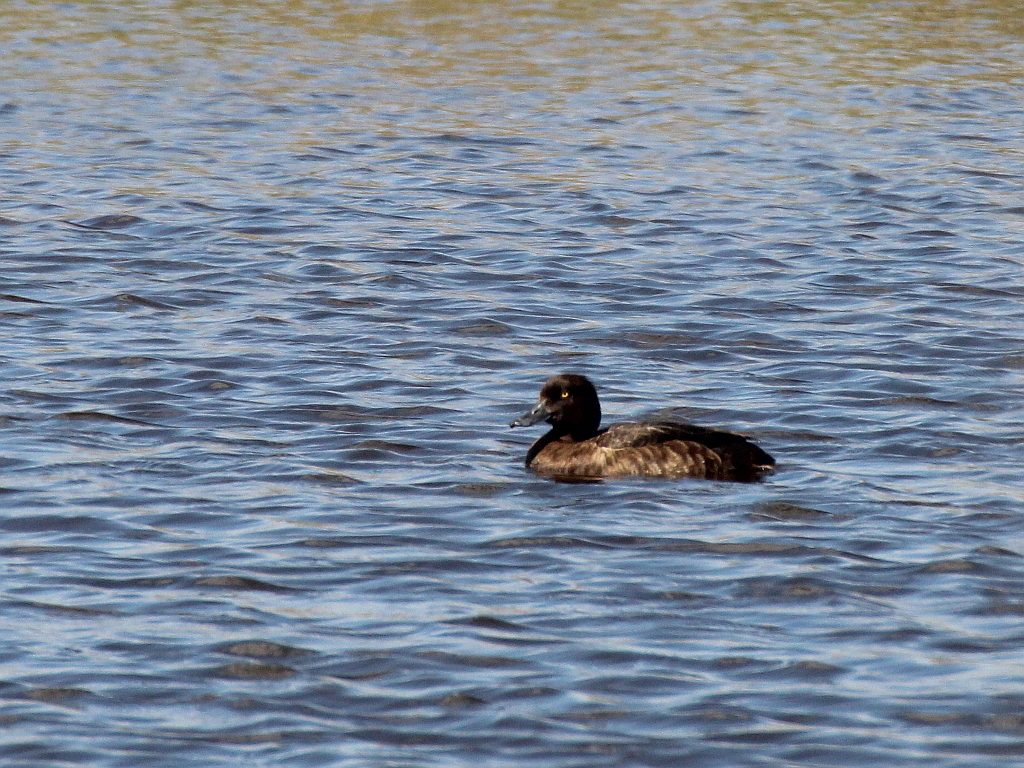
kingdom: Animalia
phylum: Chordata
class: Aves
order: Anseriformes
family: Anatidae
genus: Aythya
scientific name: Aythya fuligula
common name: Tufted duck
